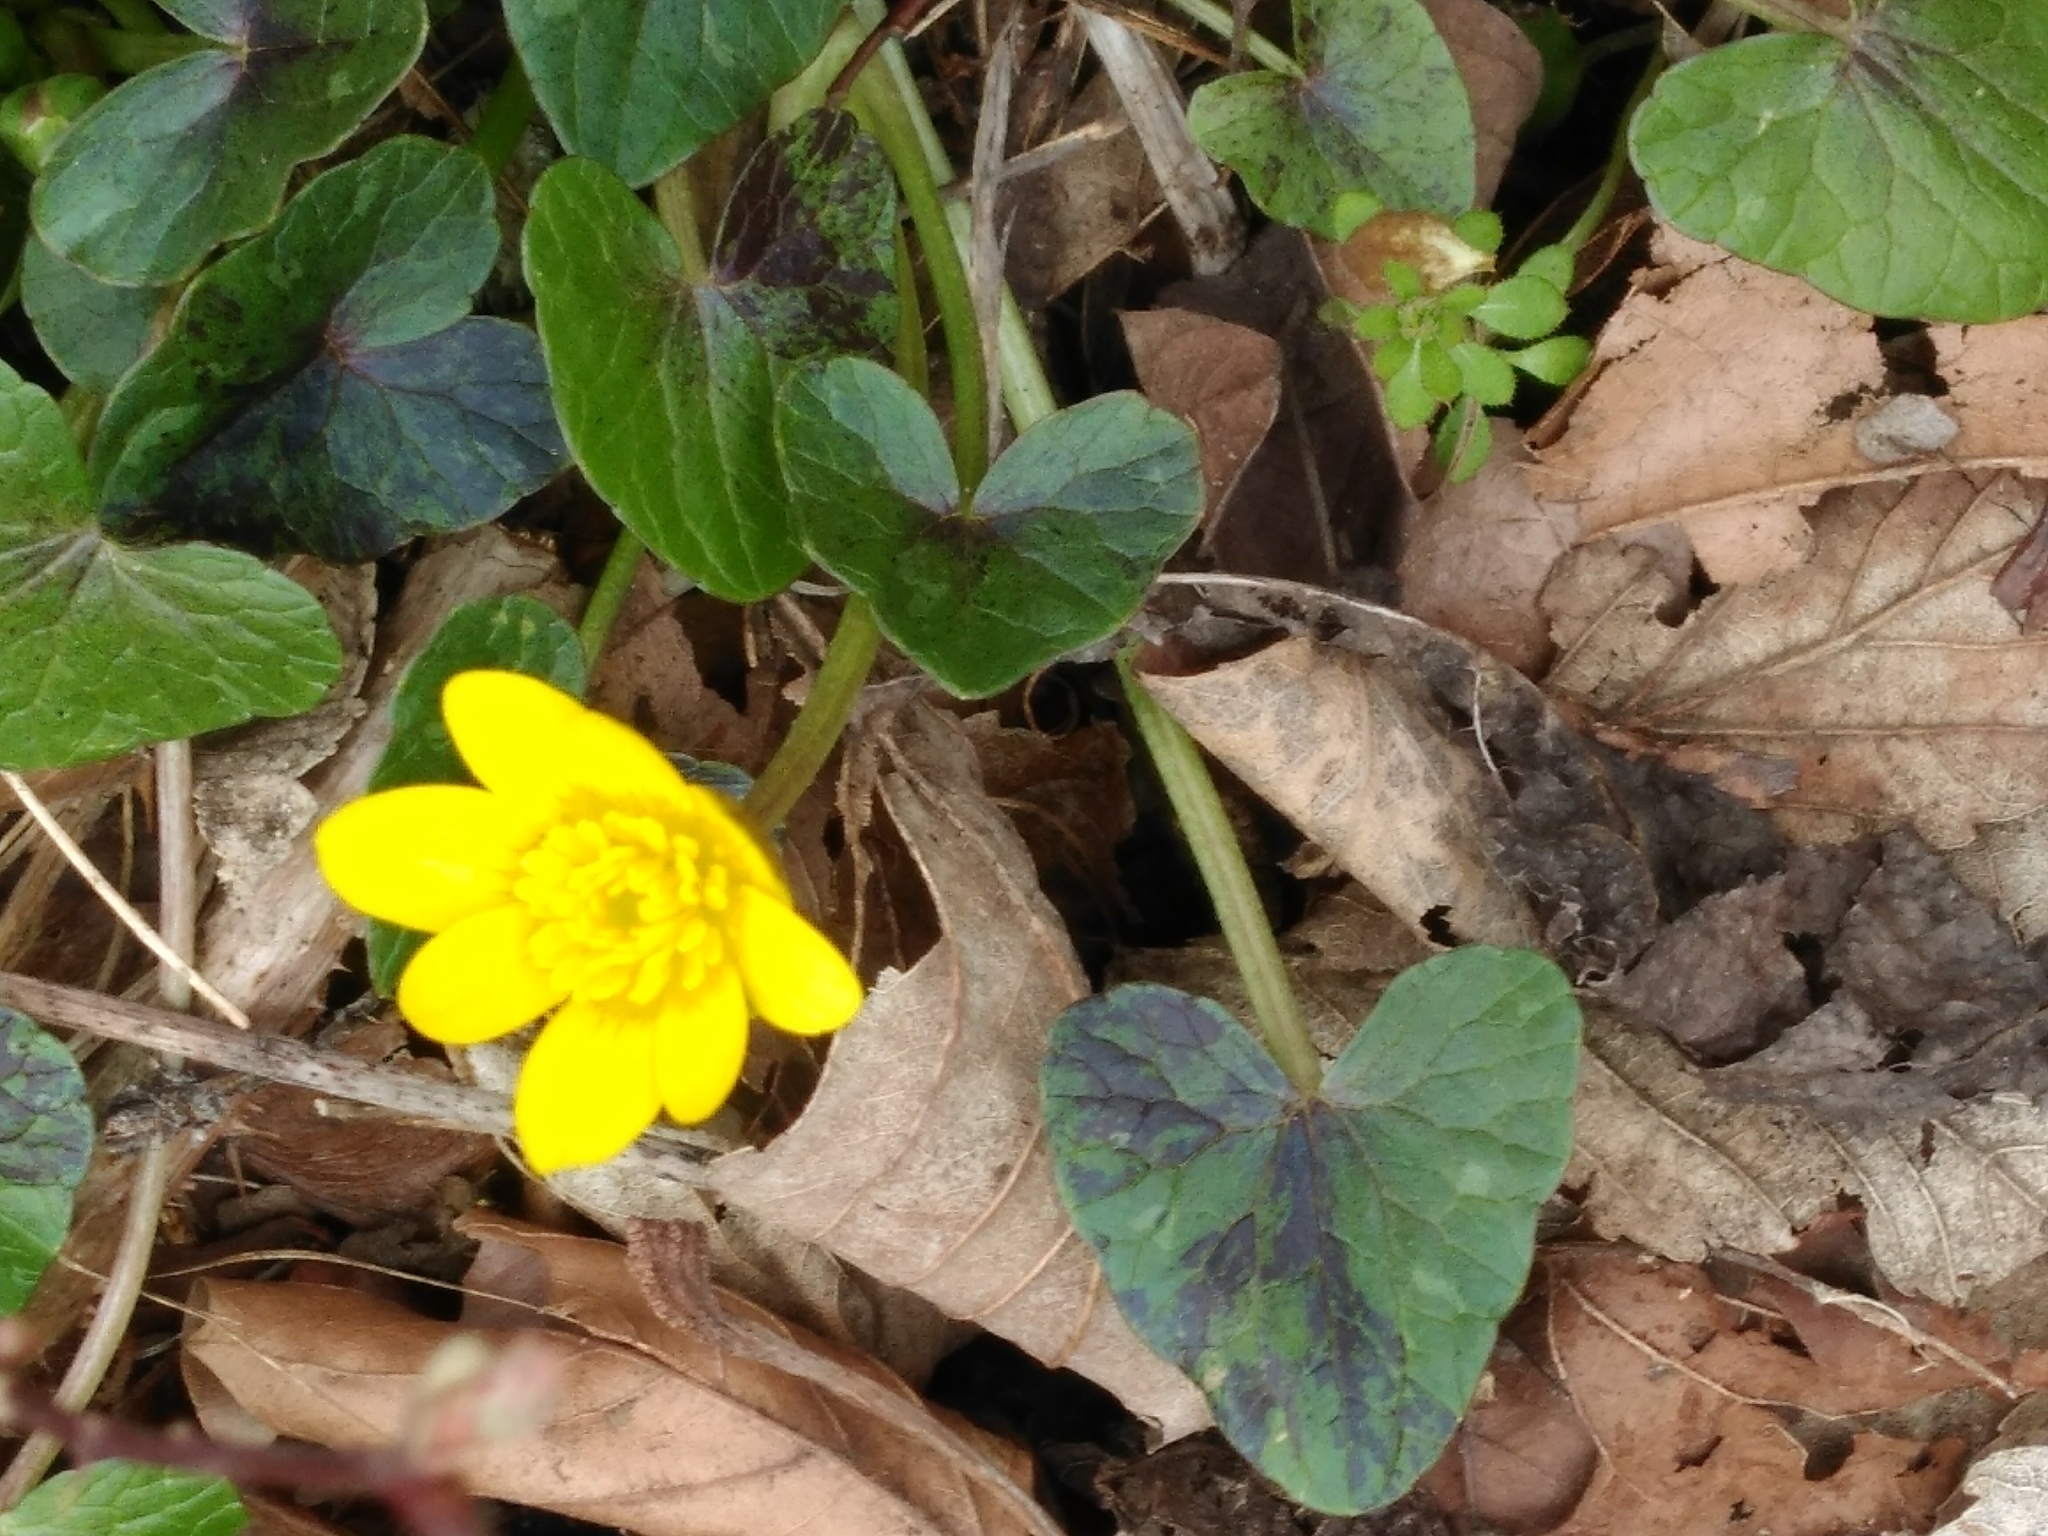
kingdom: Plantae
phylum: Tracheophyta
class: Magnoliopsida
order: Ranunculales
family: Ranunculaceae
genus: Ficaria
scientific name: Ficaria verna
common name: Lesser celandine
